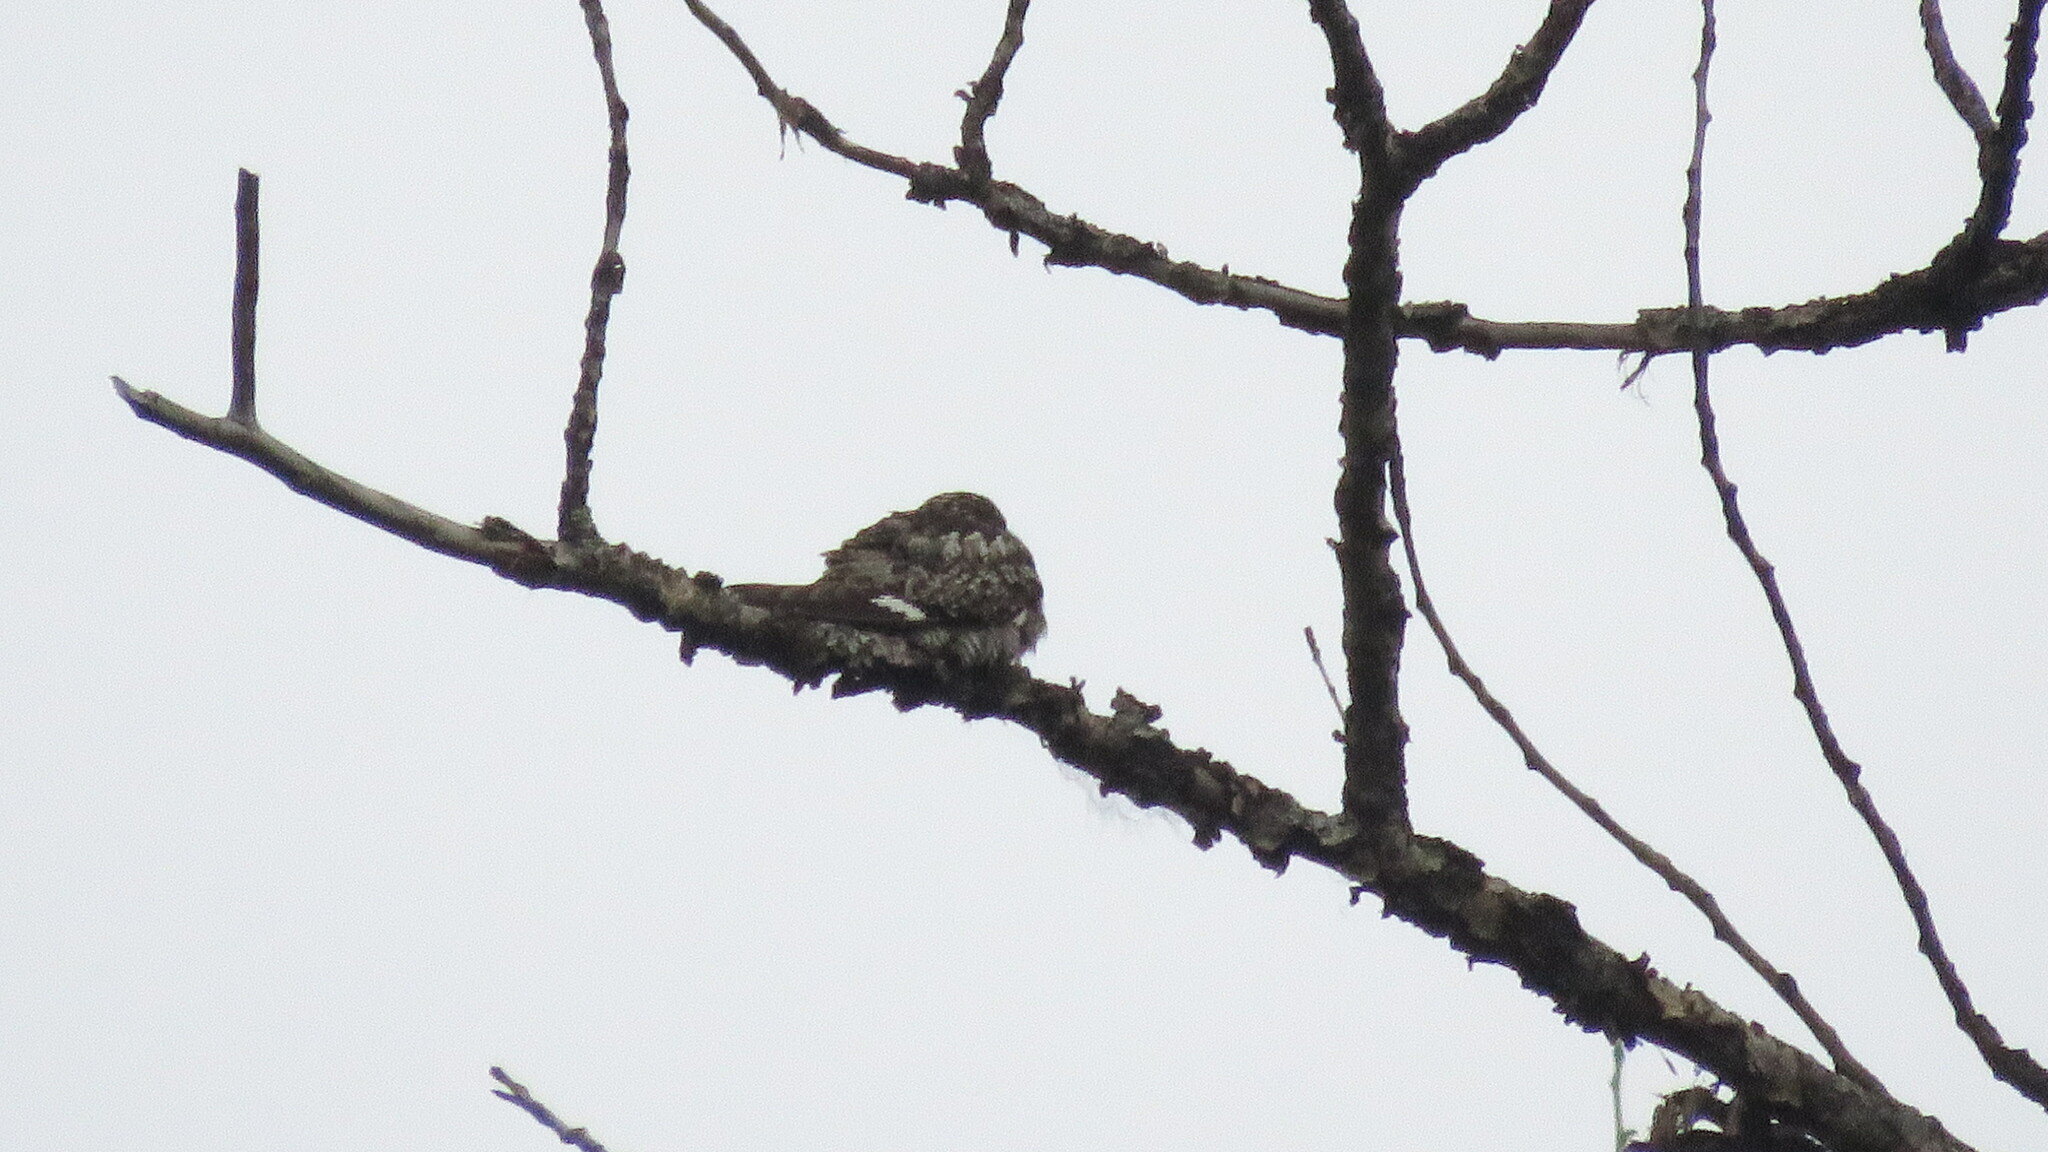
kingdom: Animalia
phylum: Chordata
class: Aves
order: Caprimulgiformes
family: Caprimulgidae
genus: Chordeiles
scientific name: Chordeiles minor
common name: Common nighthawk
